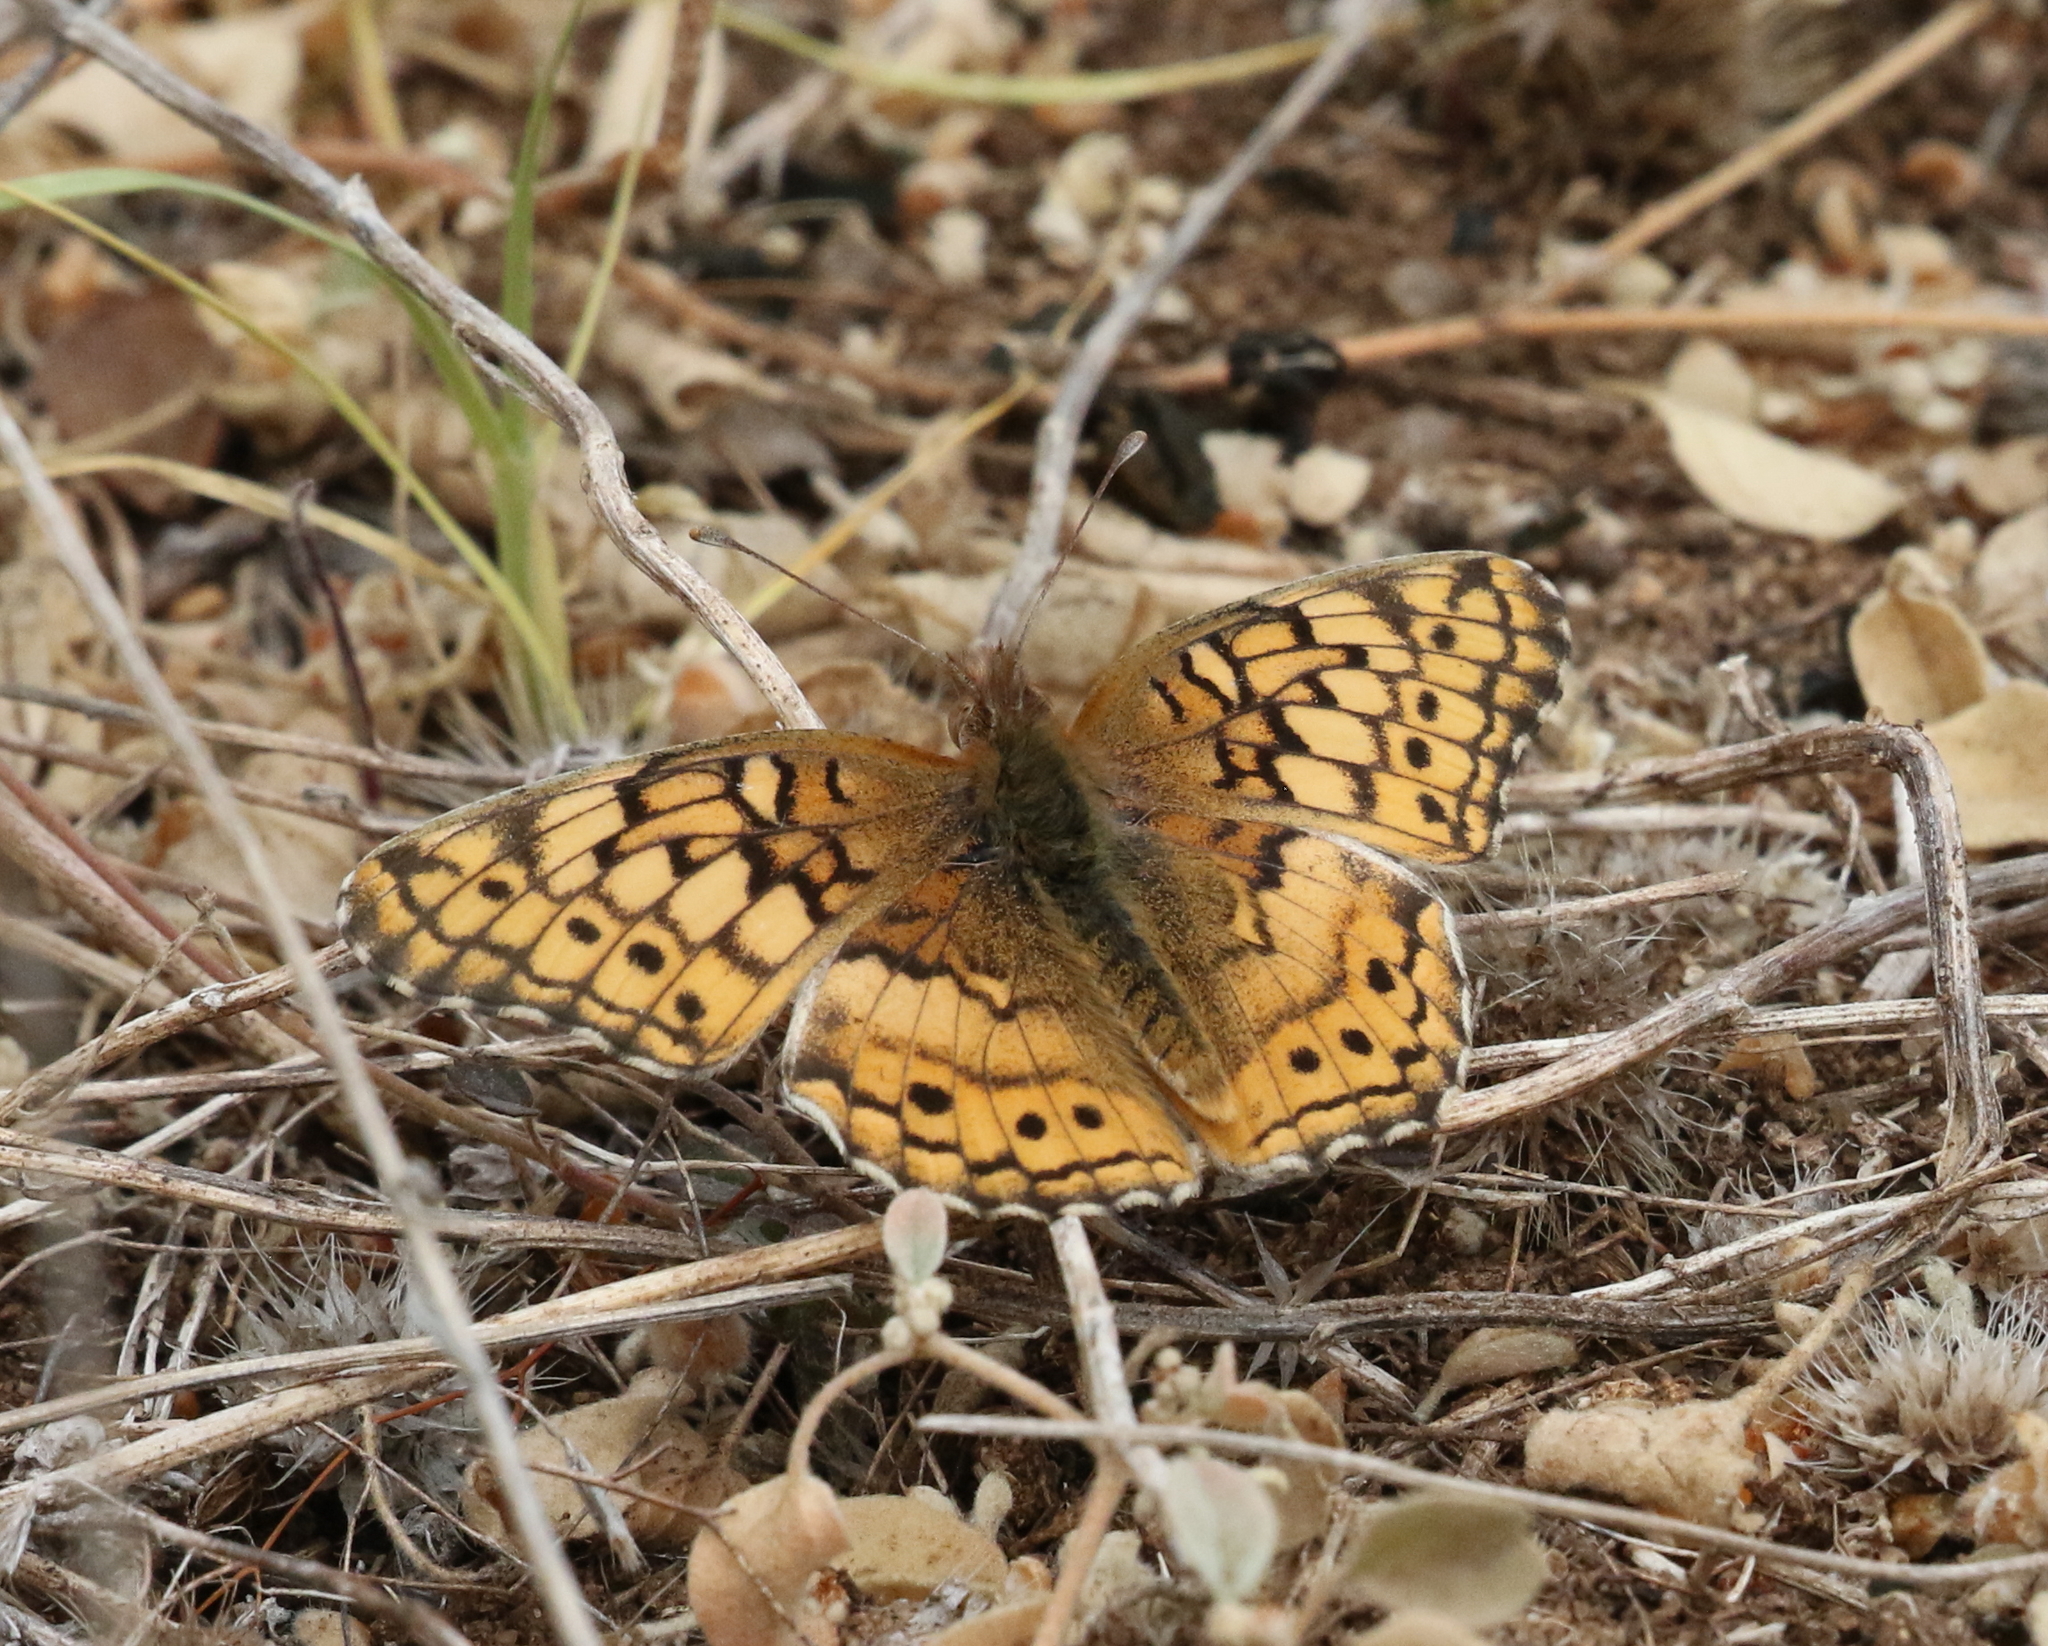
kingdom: Animalia
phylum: Arthropoda
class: Insecta
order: Lepidoptera
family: Nymphalidae
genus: Euptoieta
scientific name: Euptoieta claudia
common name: Variegated fritillary
